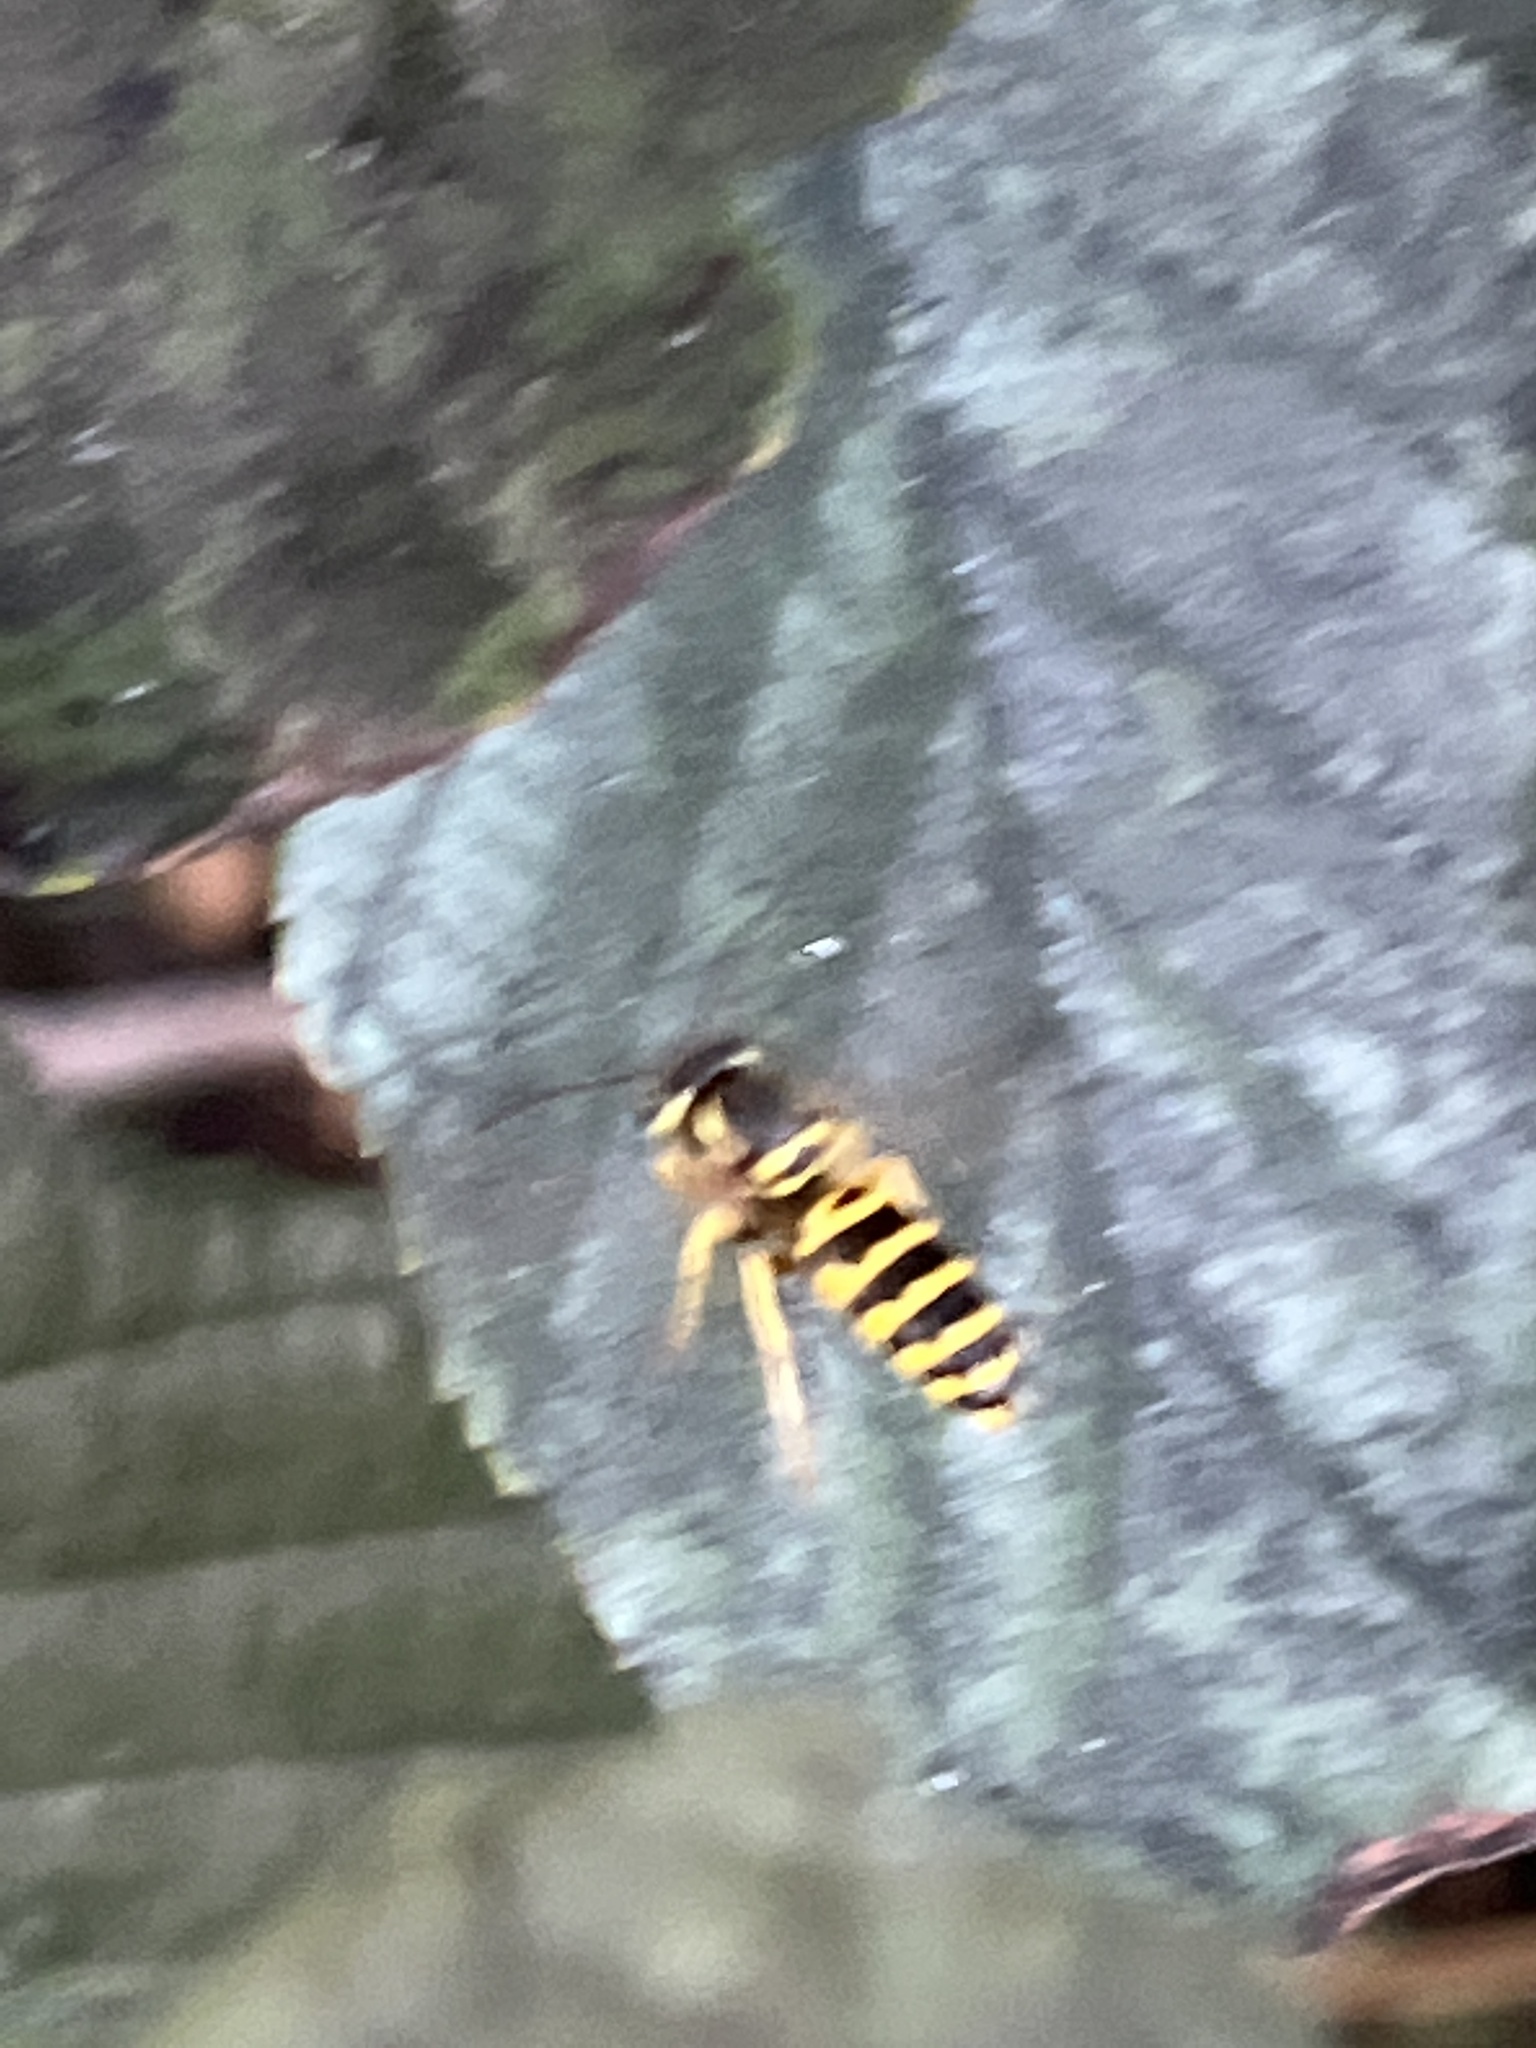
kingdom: Animalia
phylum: Arthropoda
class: Insecta
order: Hymenoptera
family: Vespidae
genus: Vespula
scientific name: Vespula maculifrons
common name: Eastern yellowjacket
